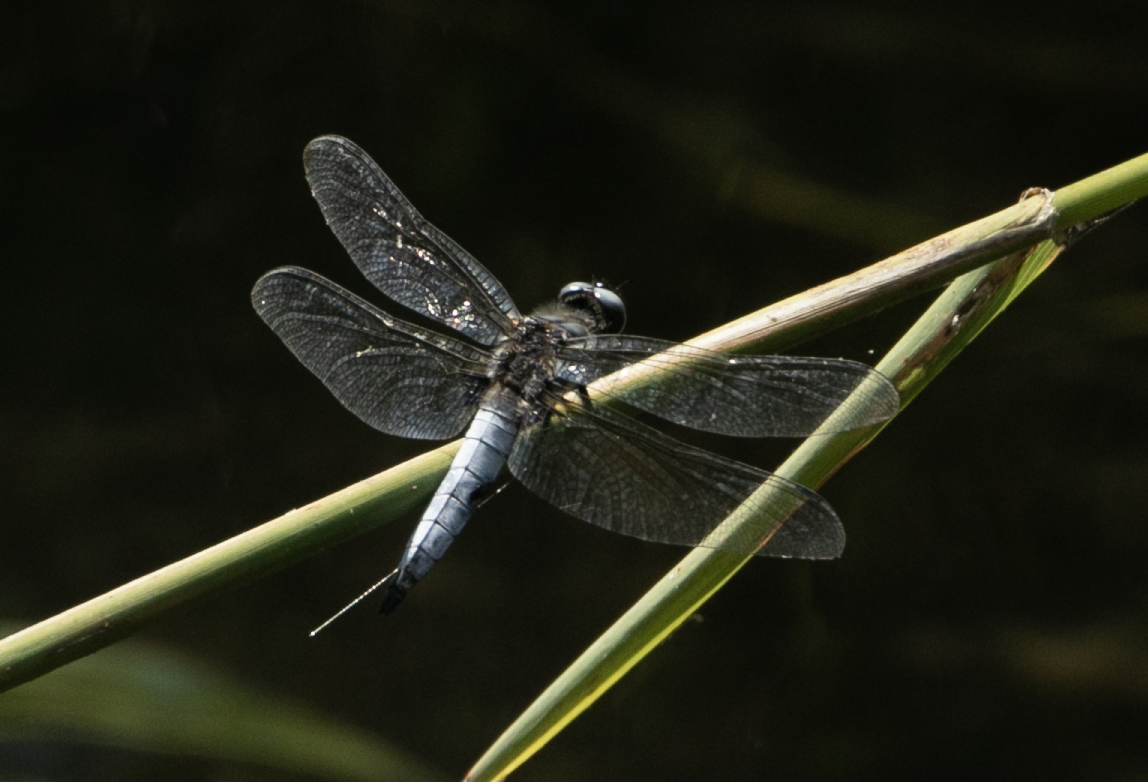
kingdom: Animalia
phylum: Arthropoda
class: Insecta
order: Odonata
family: Libellulidae
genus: Libellula
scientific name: Libellula fulva
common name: Blue chaser
